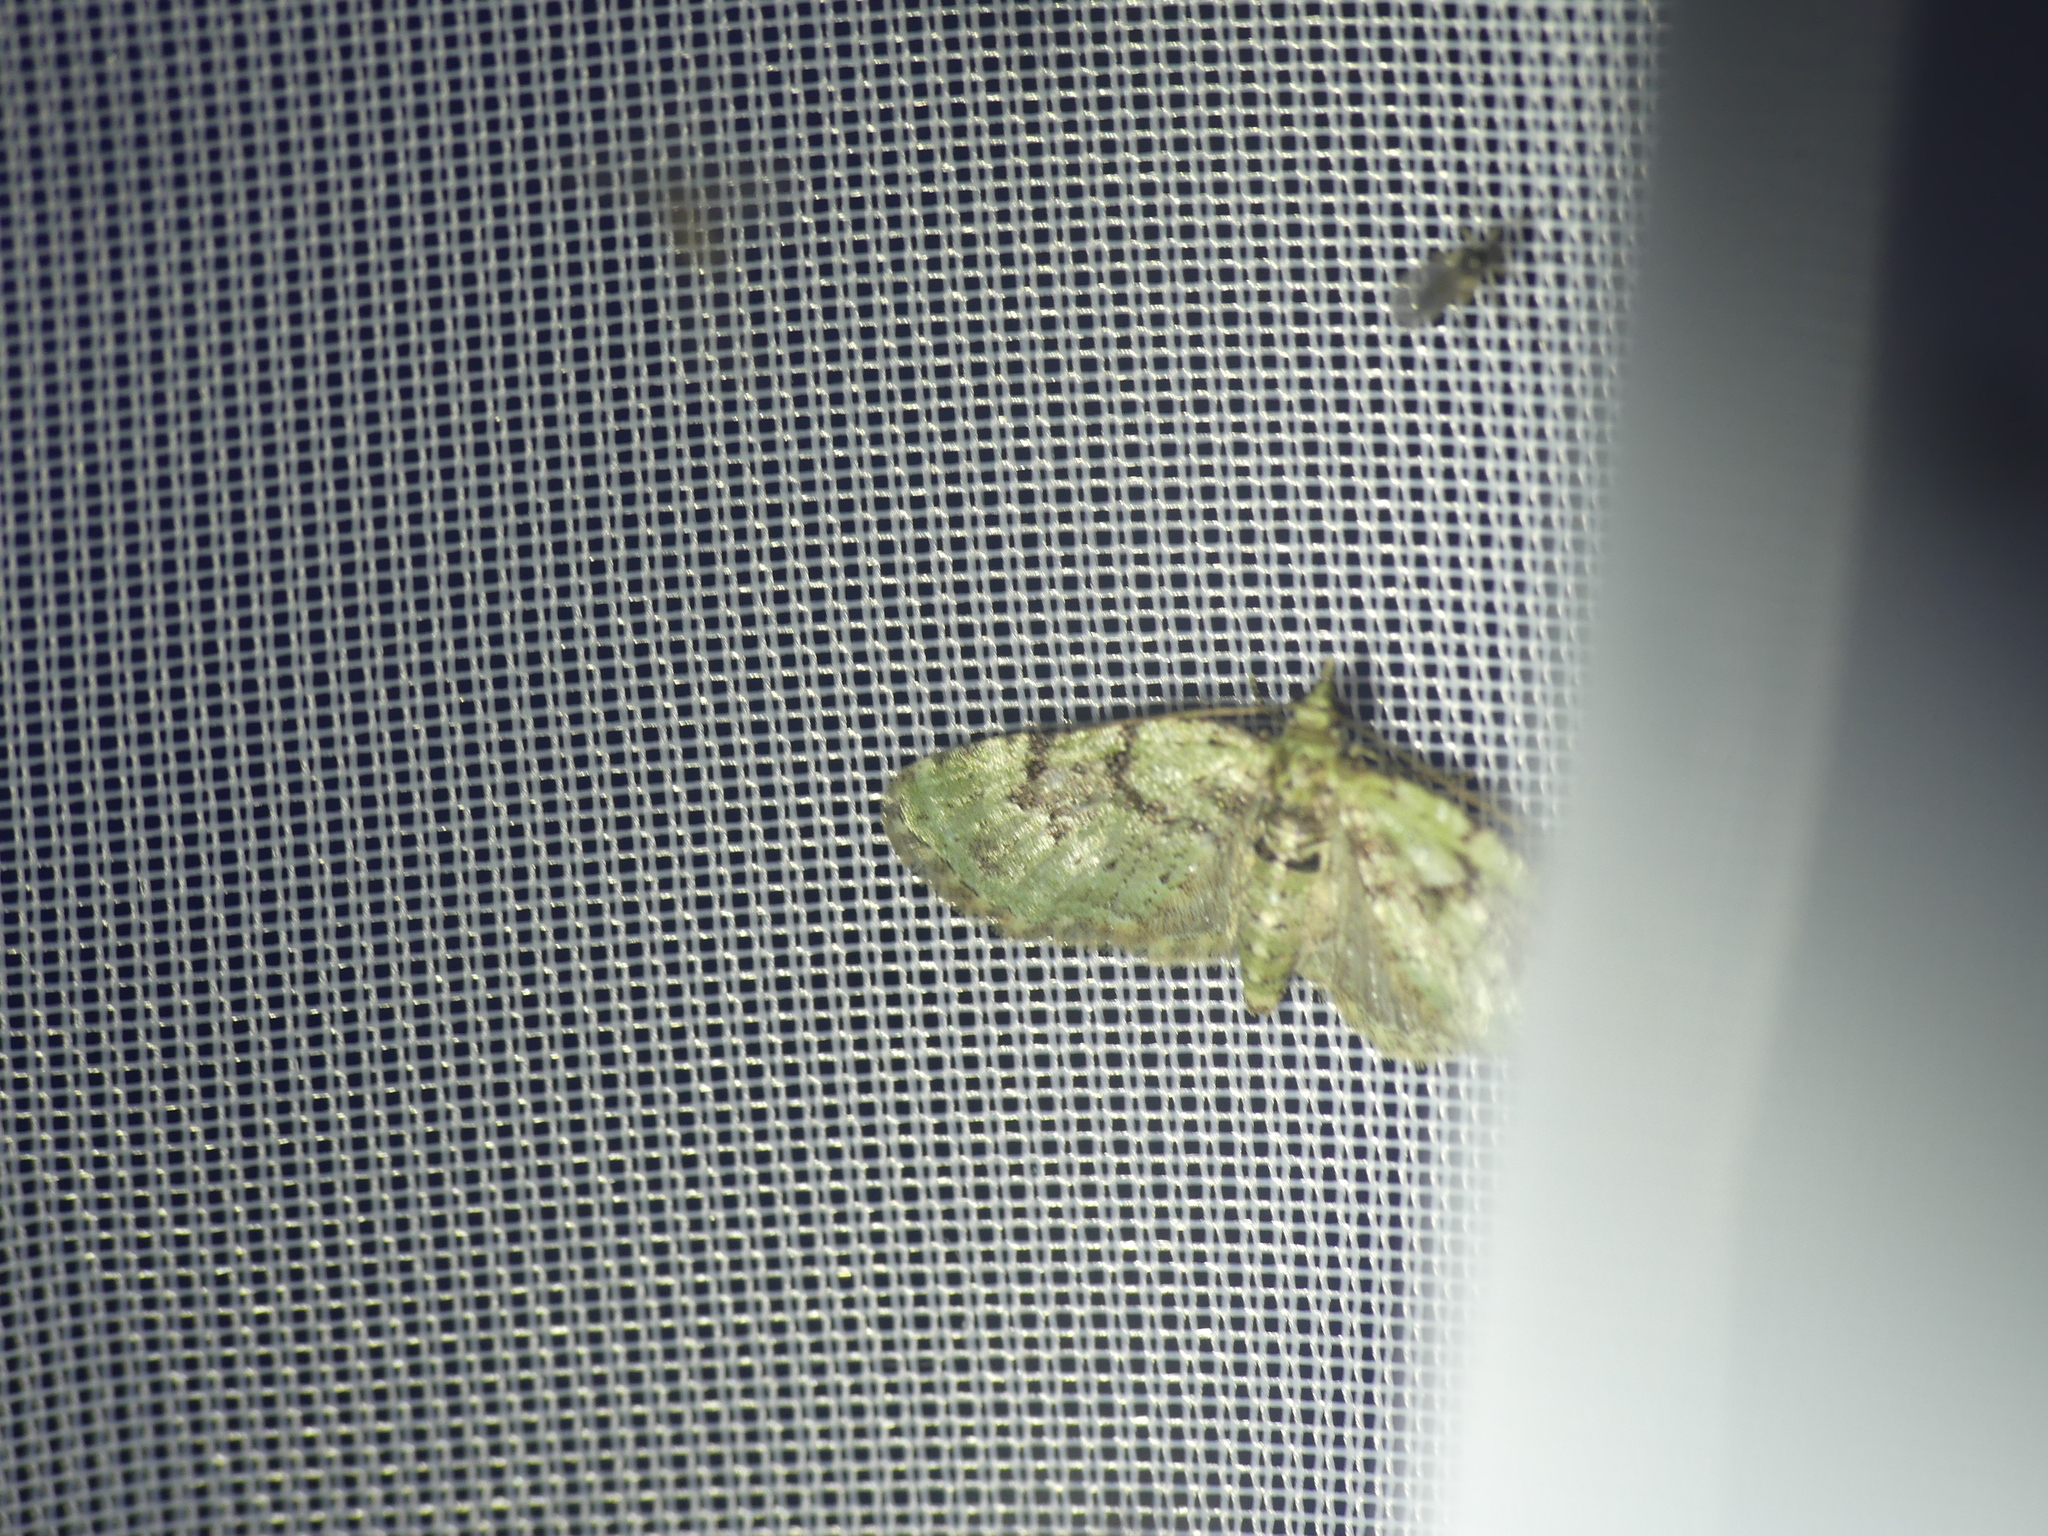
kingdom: Animalia
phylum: Arthropoda
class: Insecta
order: Lepidoptera
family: Geometridae
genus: Chloroclystis
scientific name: Chloroclystis v-ata
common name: V-pug
